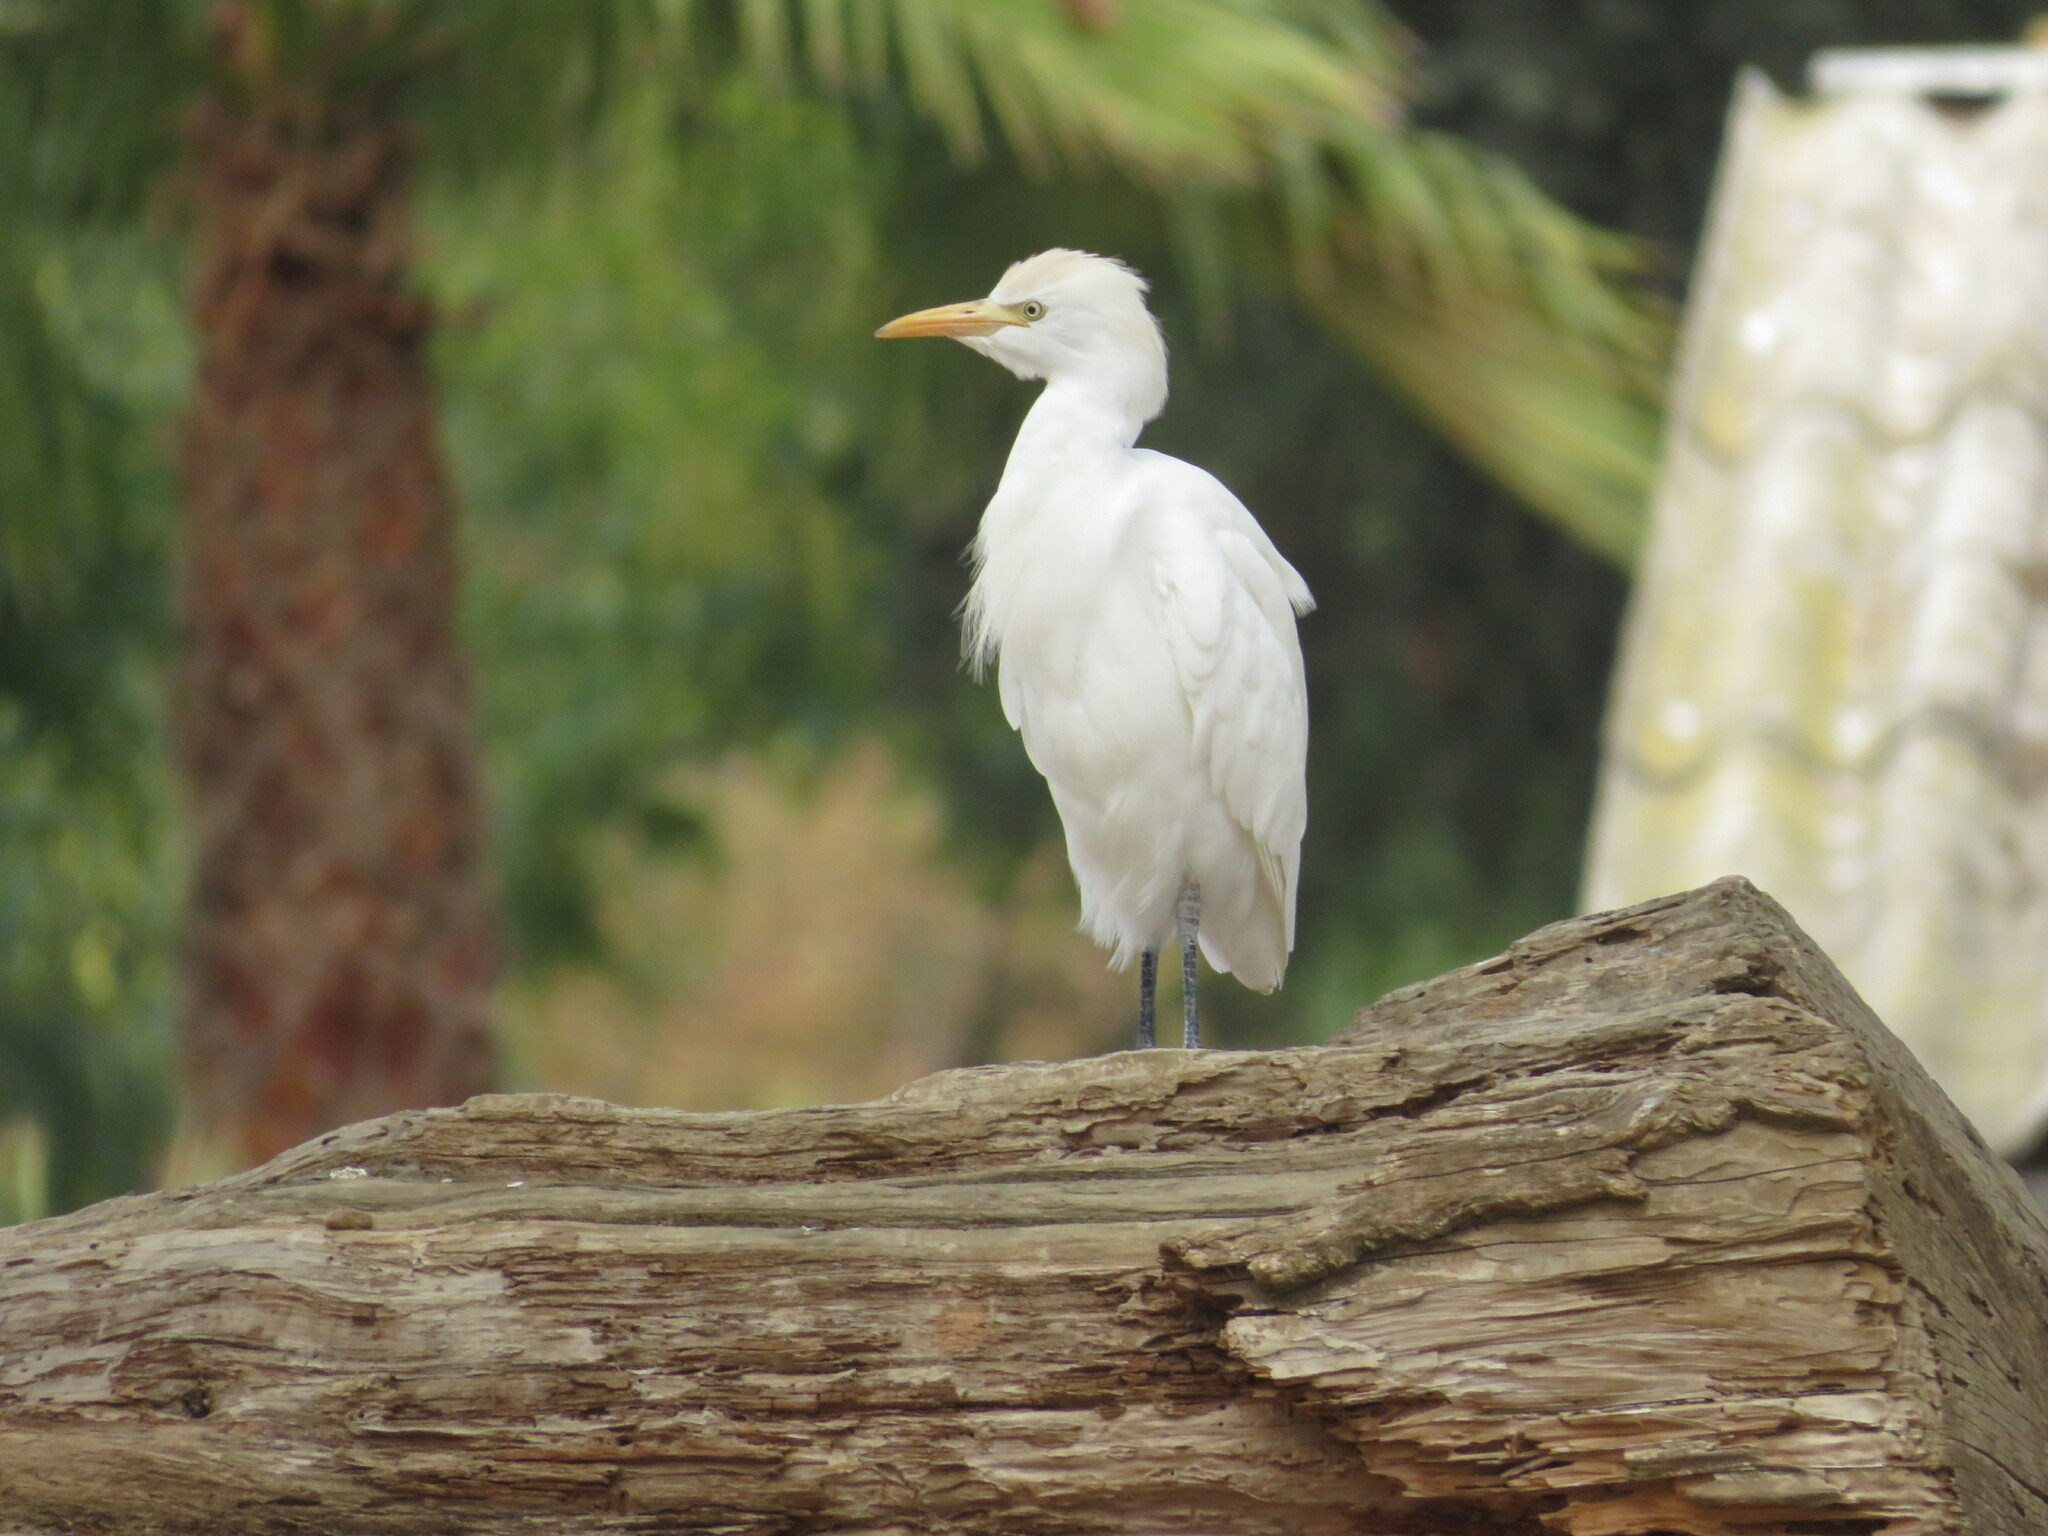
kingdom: Animalia
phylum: Chordata
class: Aves
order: Pelecaniformes
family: Ardeidae
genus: Bubulcus
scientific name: Bubulcus ibis
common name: Cattle egret
